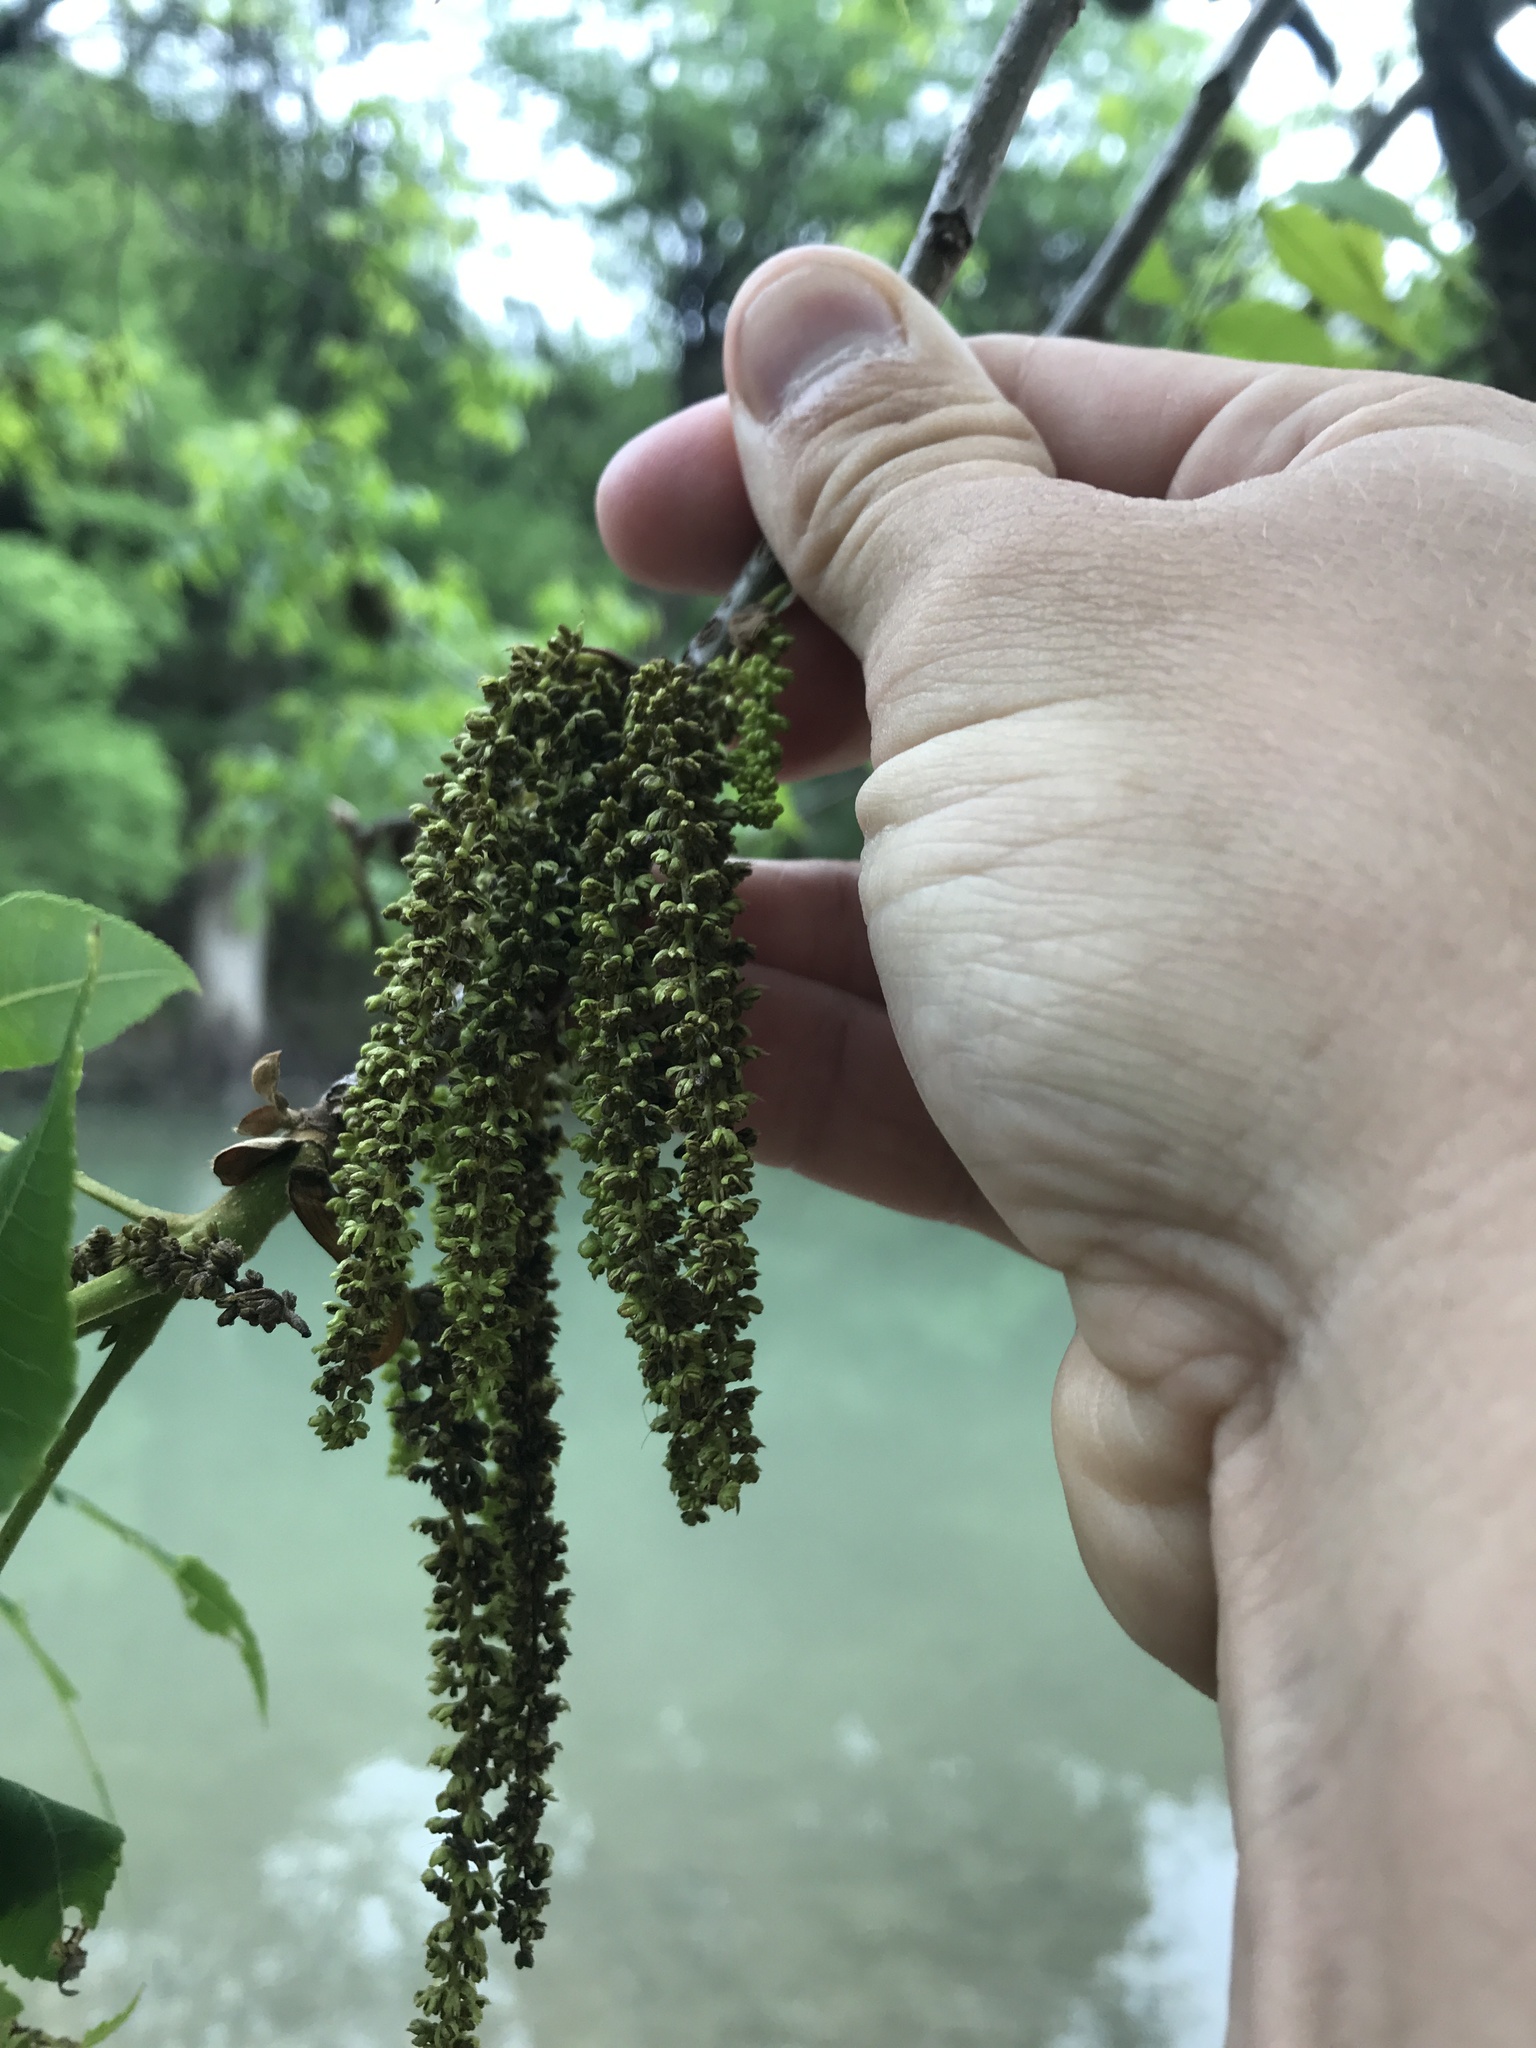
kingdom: Plantae
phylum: Tracheophyta
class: Magnoliopsida
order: Fagales
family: Juglandaceae
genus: Carya
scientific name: Carya illinoinensis
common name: Pecan
